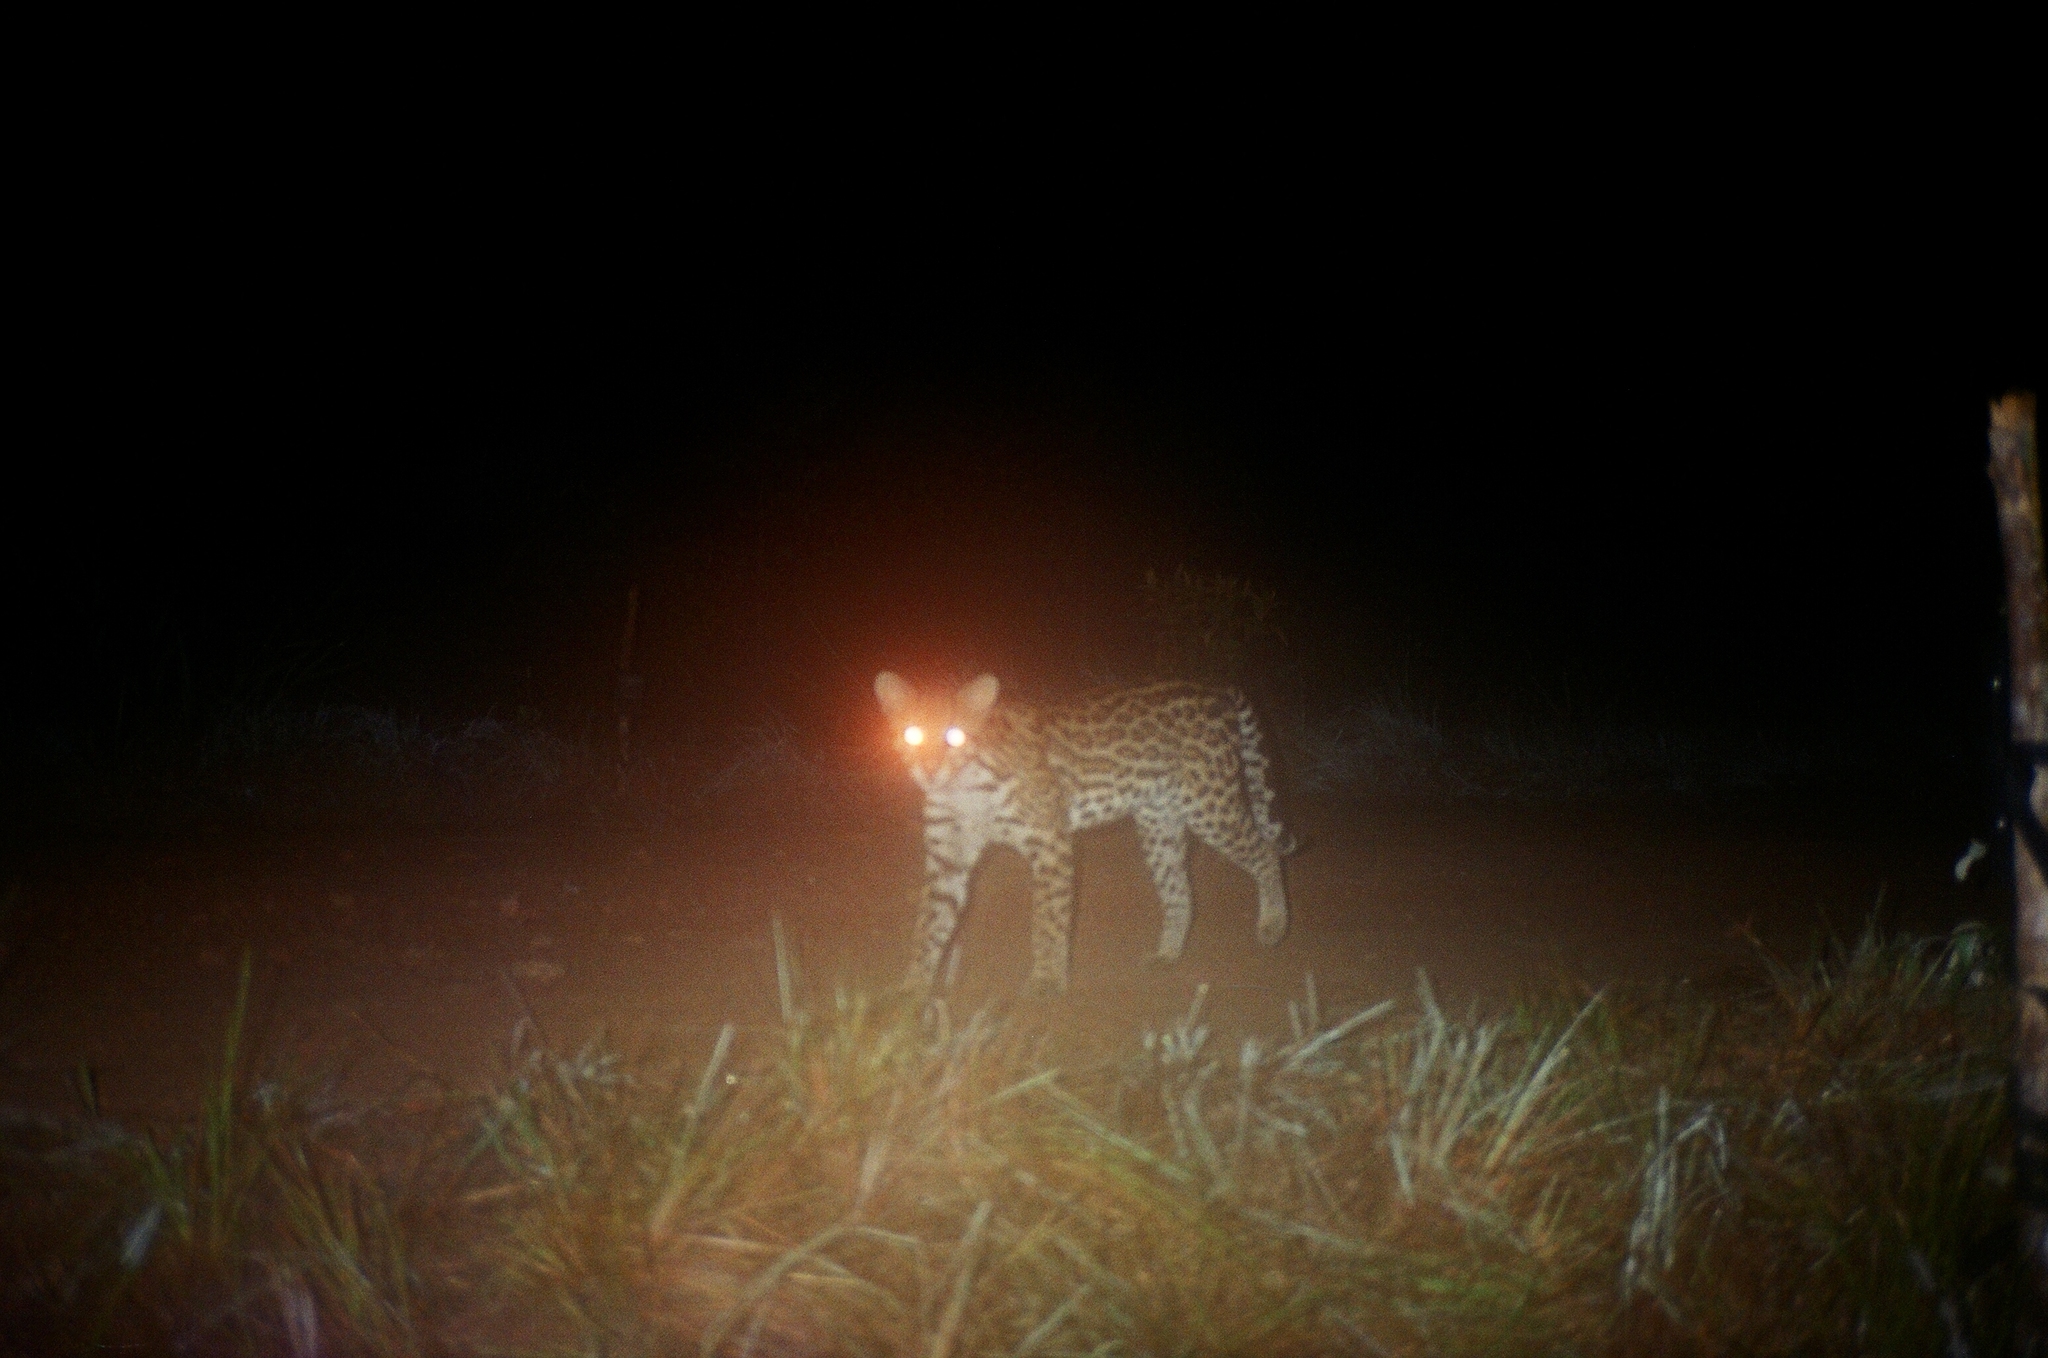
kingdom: Animalia
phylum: Chordata
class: Mammalia
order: Carnivora
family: Felidae
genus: Leopardus
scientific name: Leopardus pardalis
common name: Ocelot
